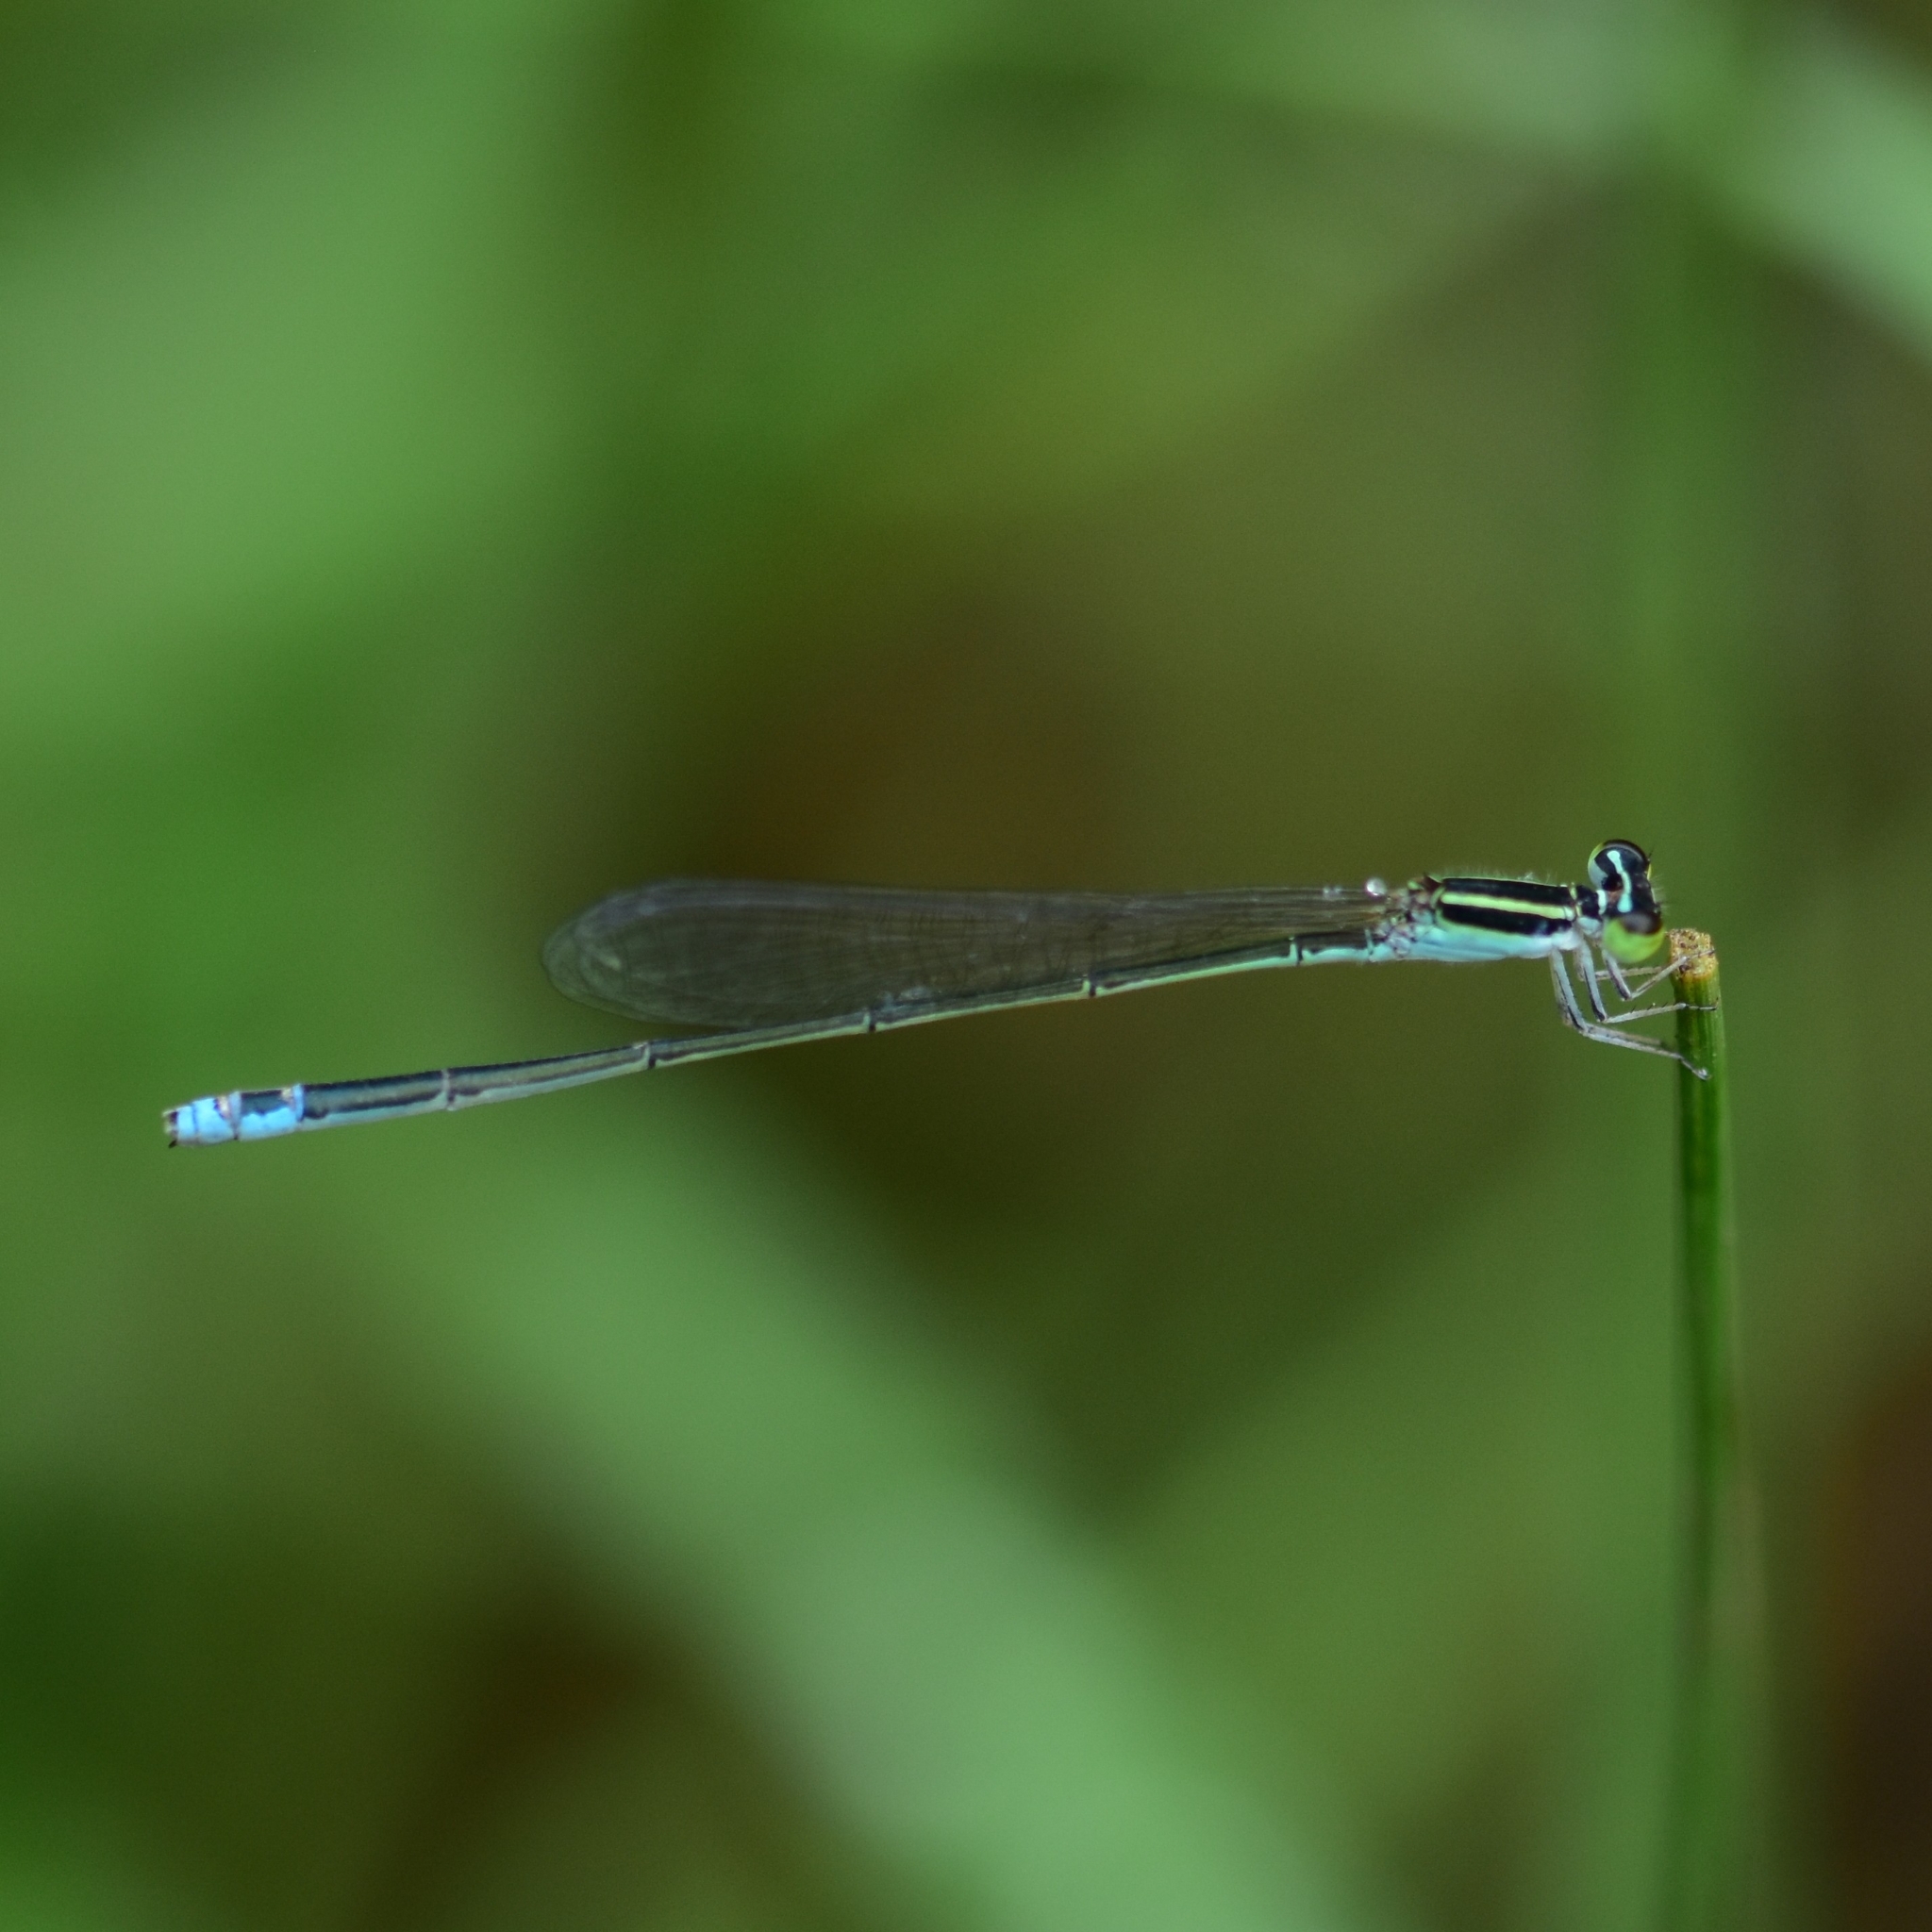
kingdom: Animalia
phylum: Arthropoda
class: Insecta
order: Odonata
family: Coenagrionidae
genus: Aciagrion
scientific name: Aciagrion occidentale
